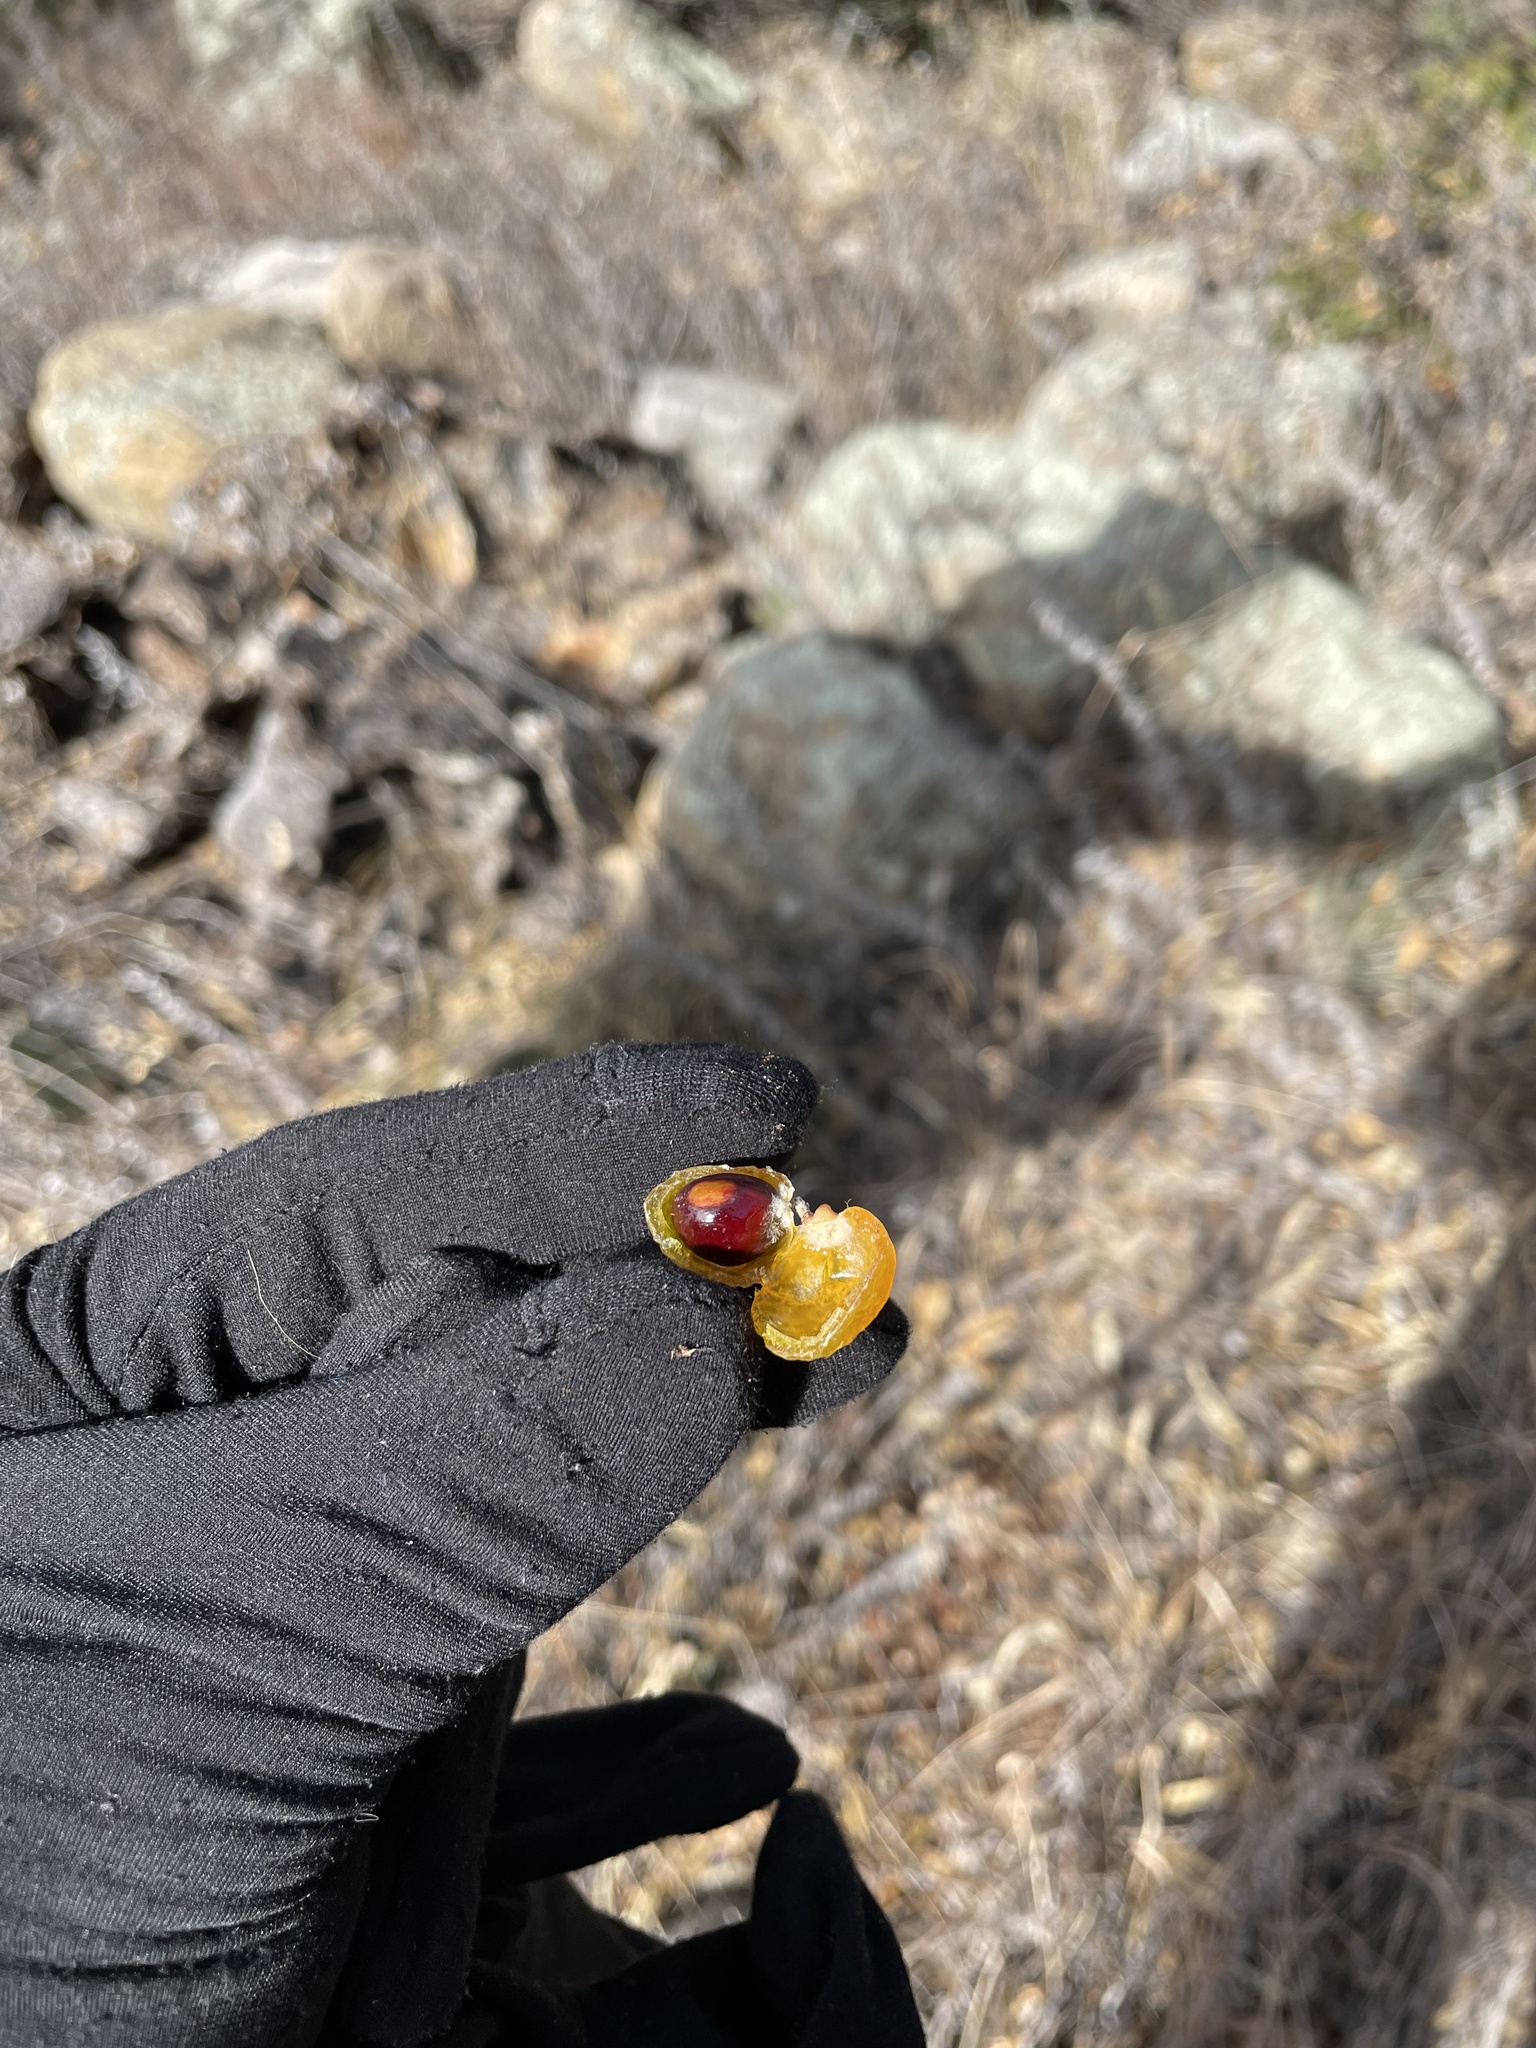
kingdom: Plantae
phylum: Tracheophyta
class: Magnoliopsida
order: Sapindales
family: Sapindaceae
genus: Sapindus
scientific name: Sapindus drummondii
